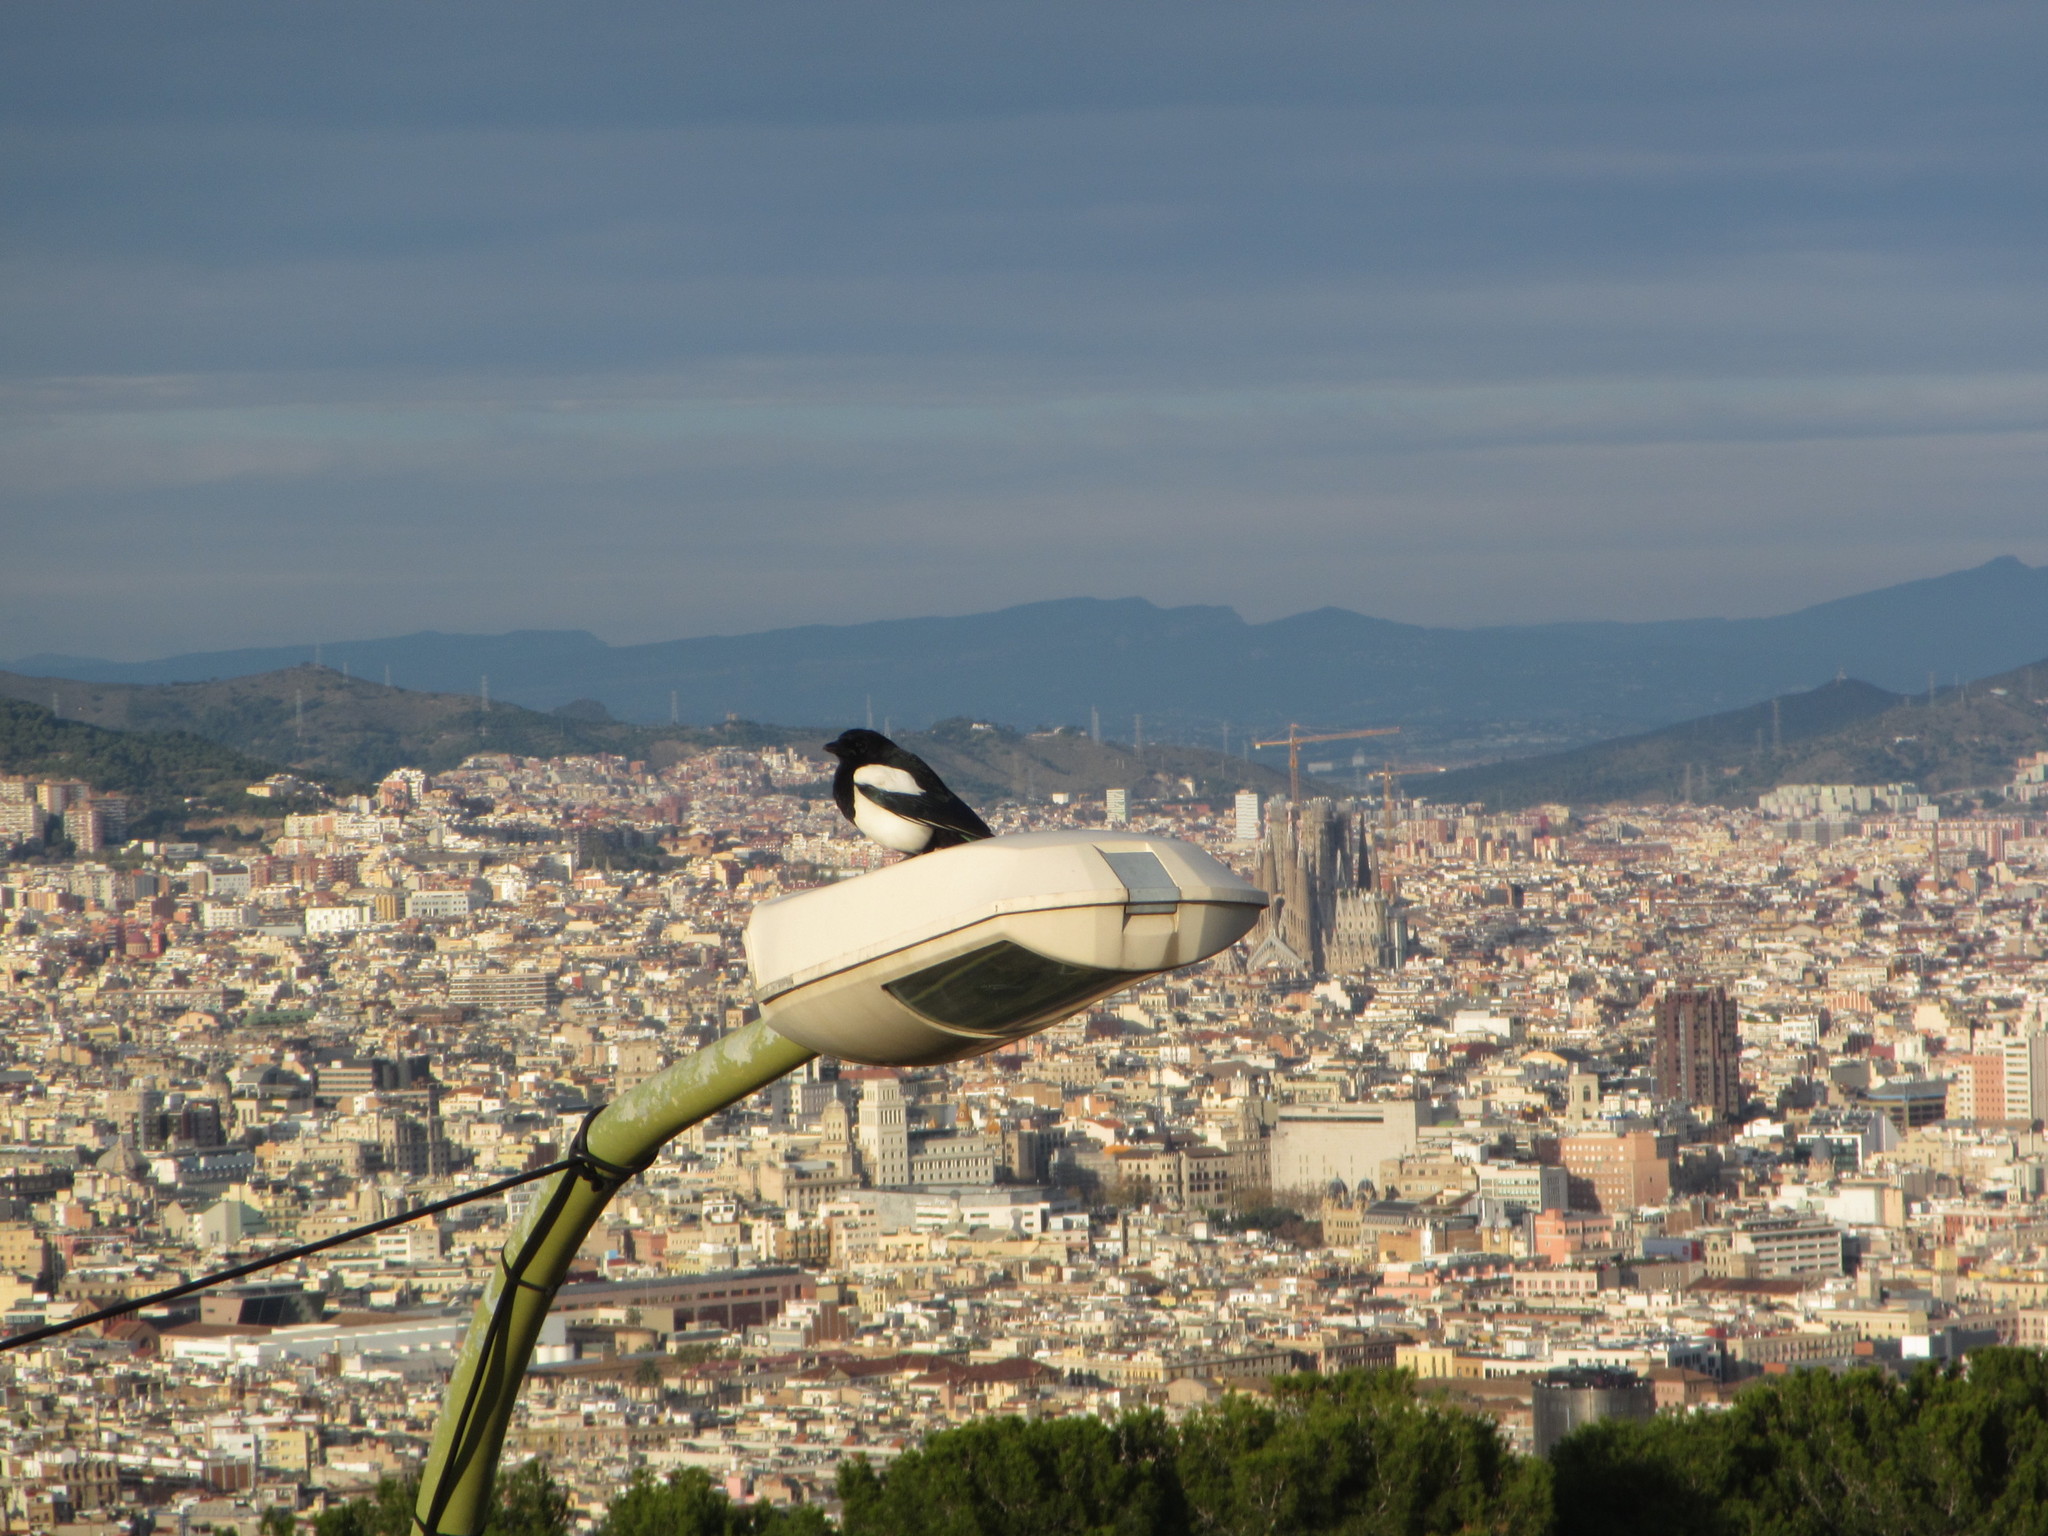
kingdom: Animalia
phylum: Chordata
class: Aves
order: Passeriformes
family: Corvidae
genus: Pica
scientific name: Pica pica
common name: Eurasian magpie
